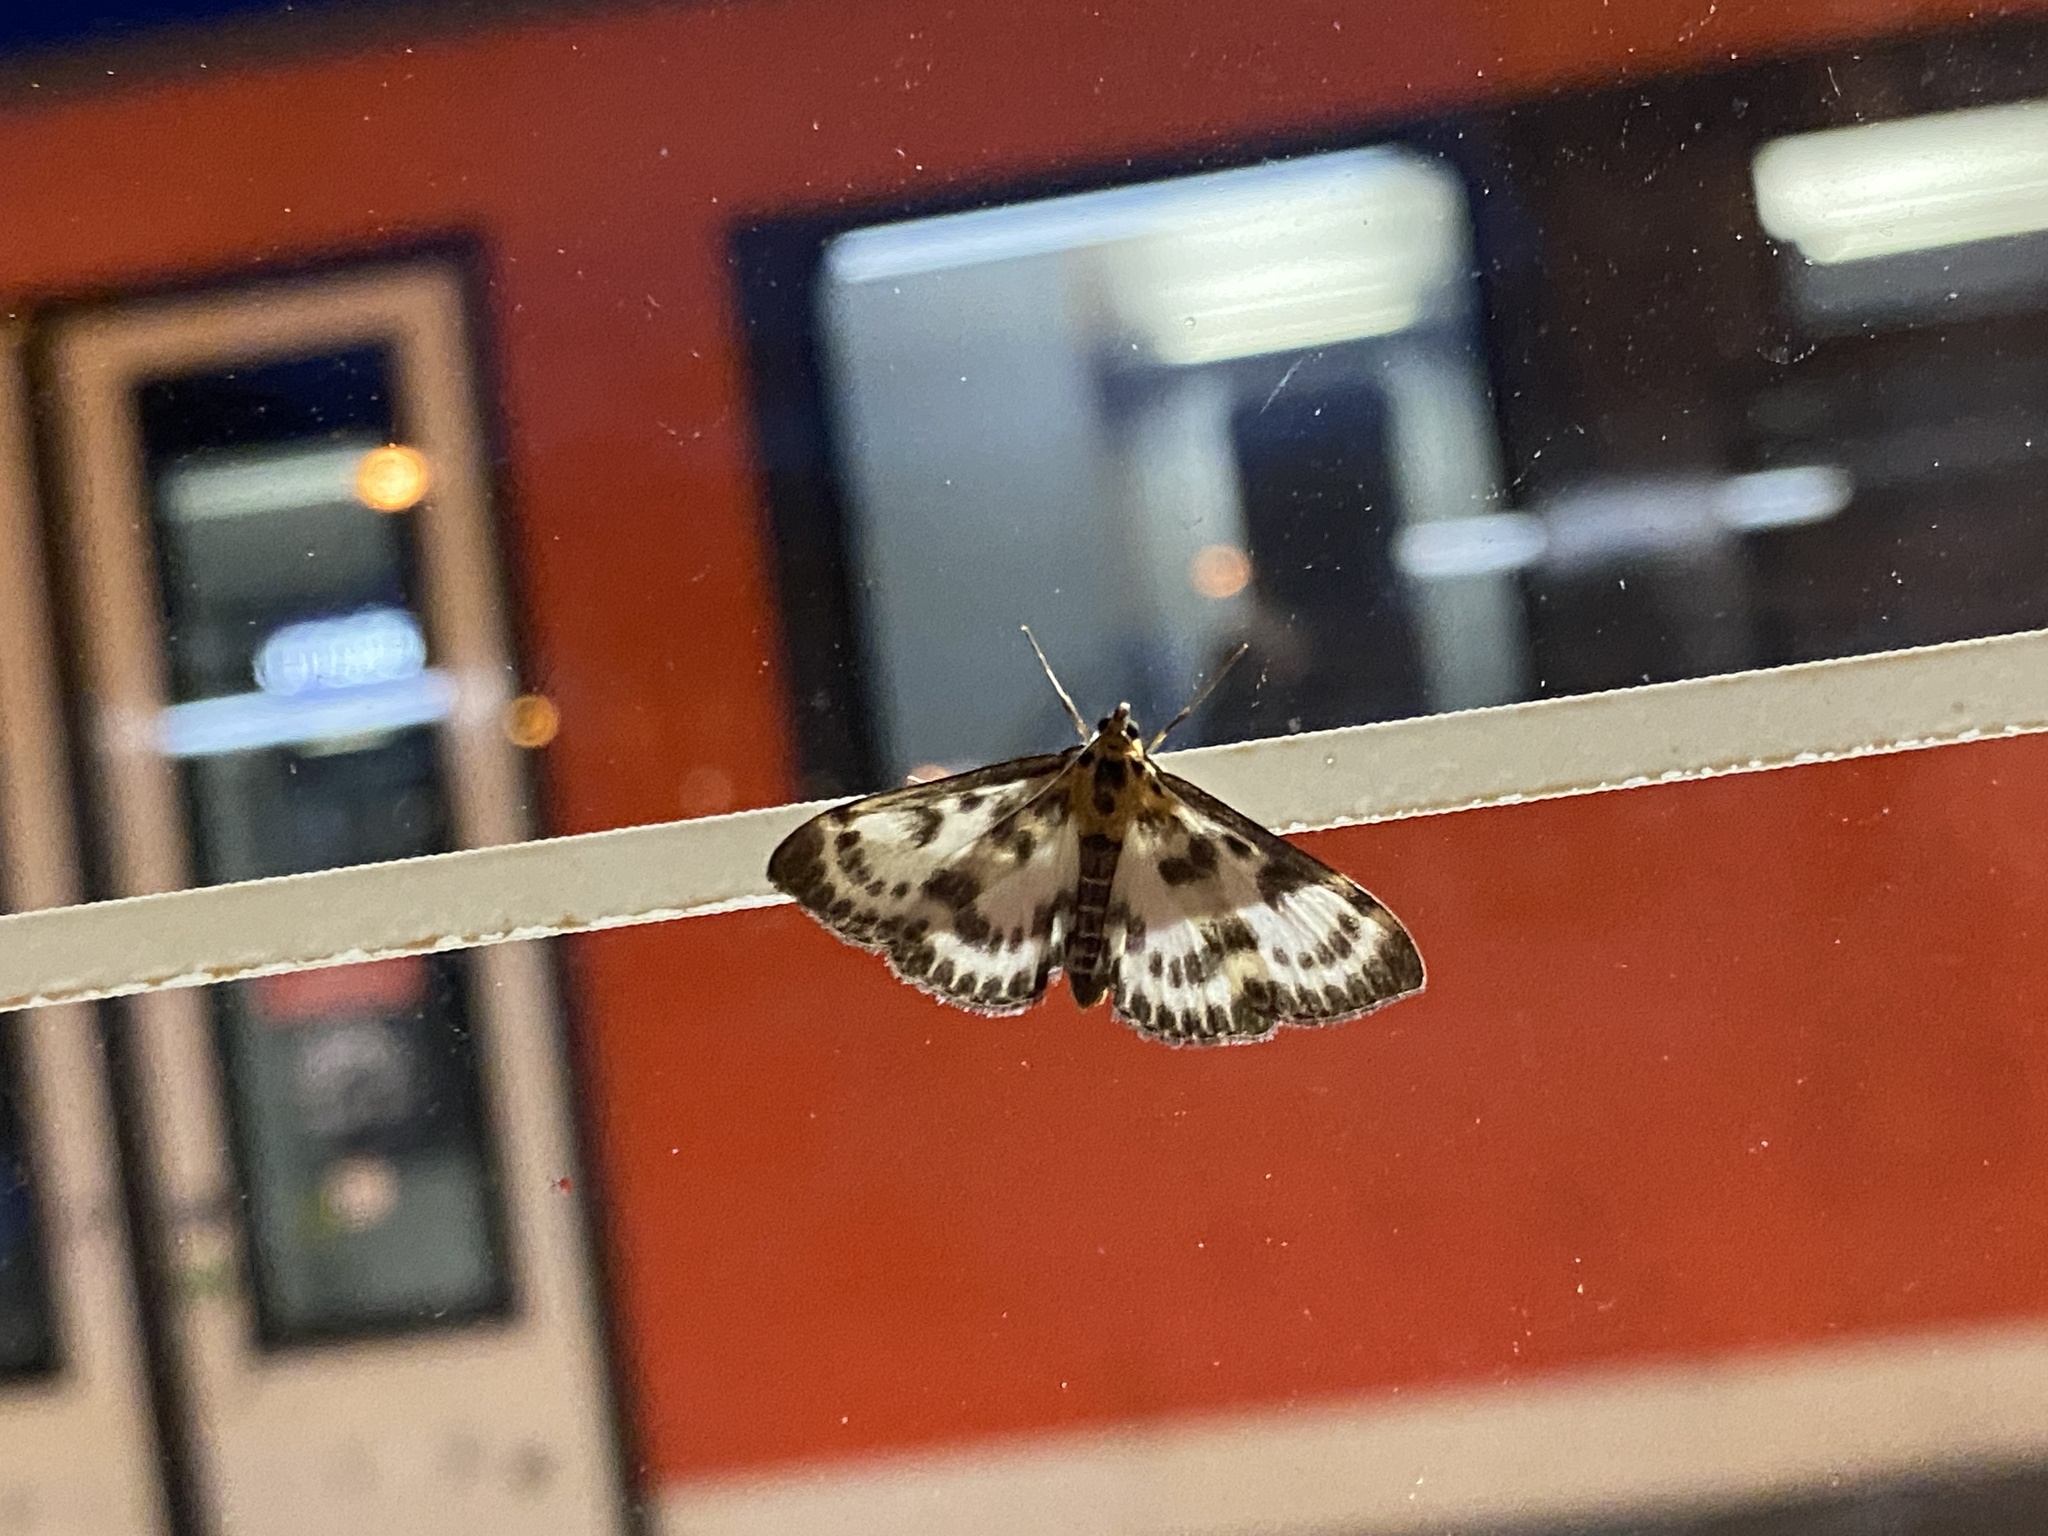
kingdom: Animalia
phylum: Arthropoda
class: Insecta
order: Lepidoptera
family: Crambidae
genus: Anania
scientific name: Anania hortulata
